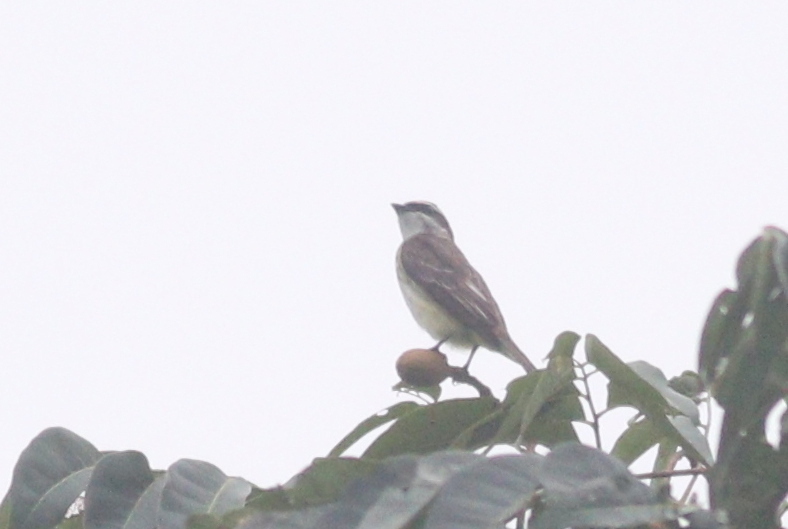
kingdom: Animalia
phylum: Chordata
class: Aves
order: Passeriformes
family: Tyrannidae
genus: Legatus
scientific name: Legatus leucophaius
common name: Piratic flycatcher
